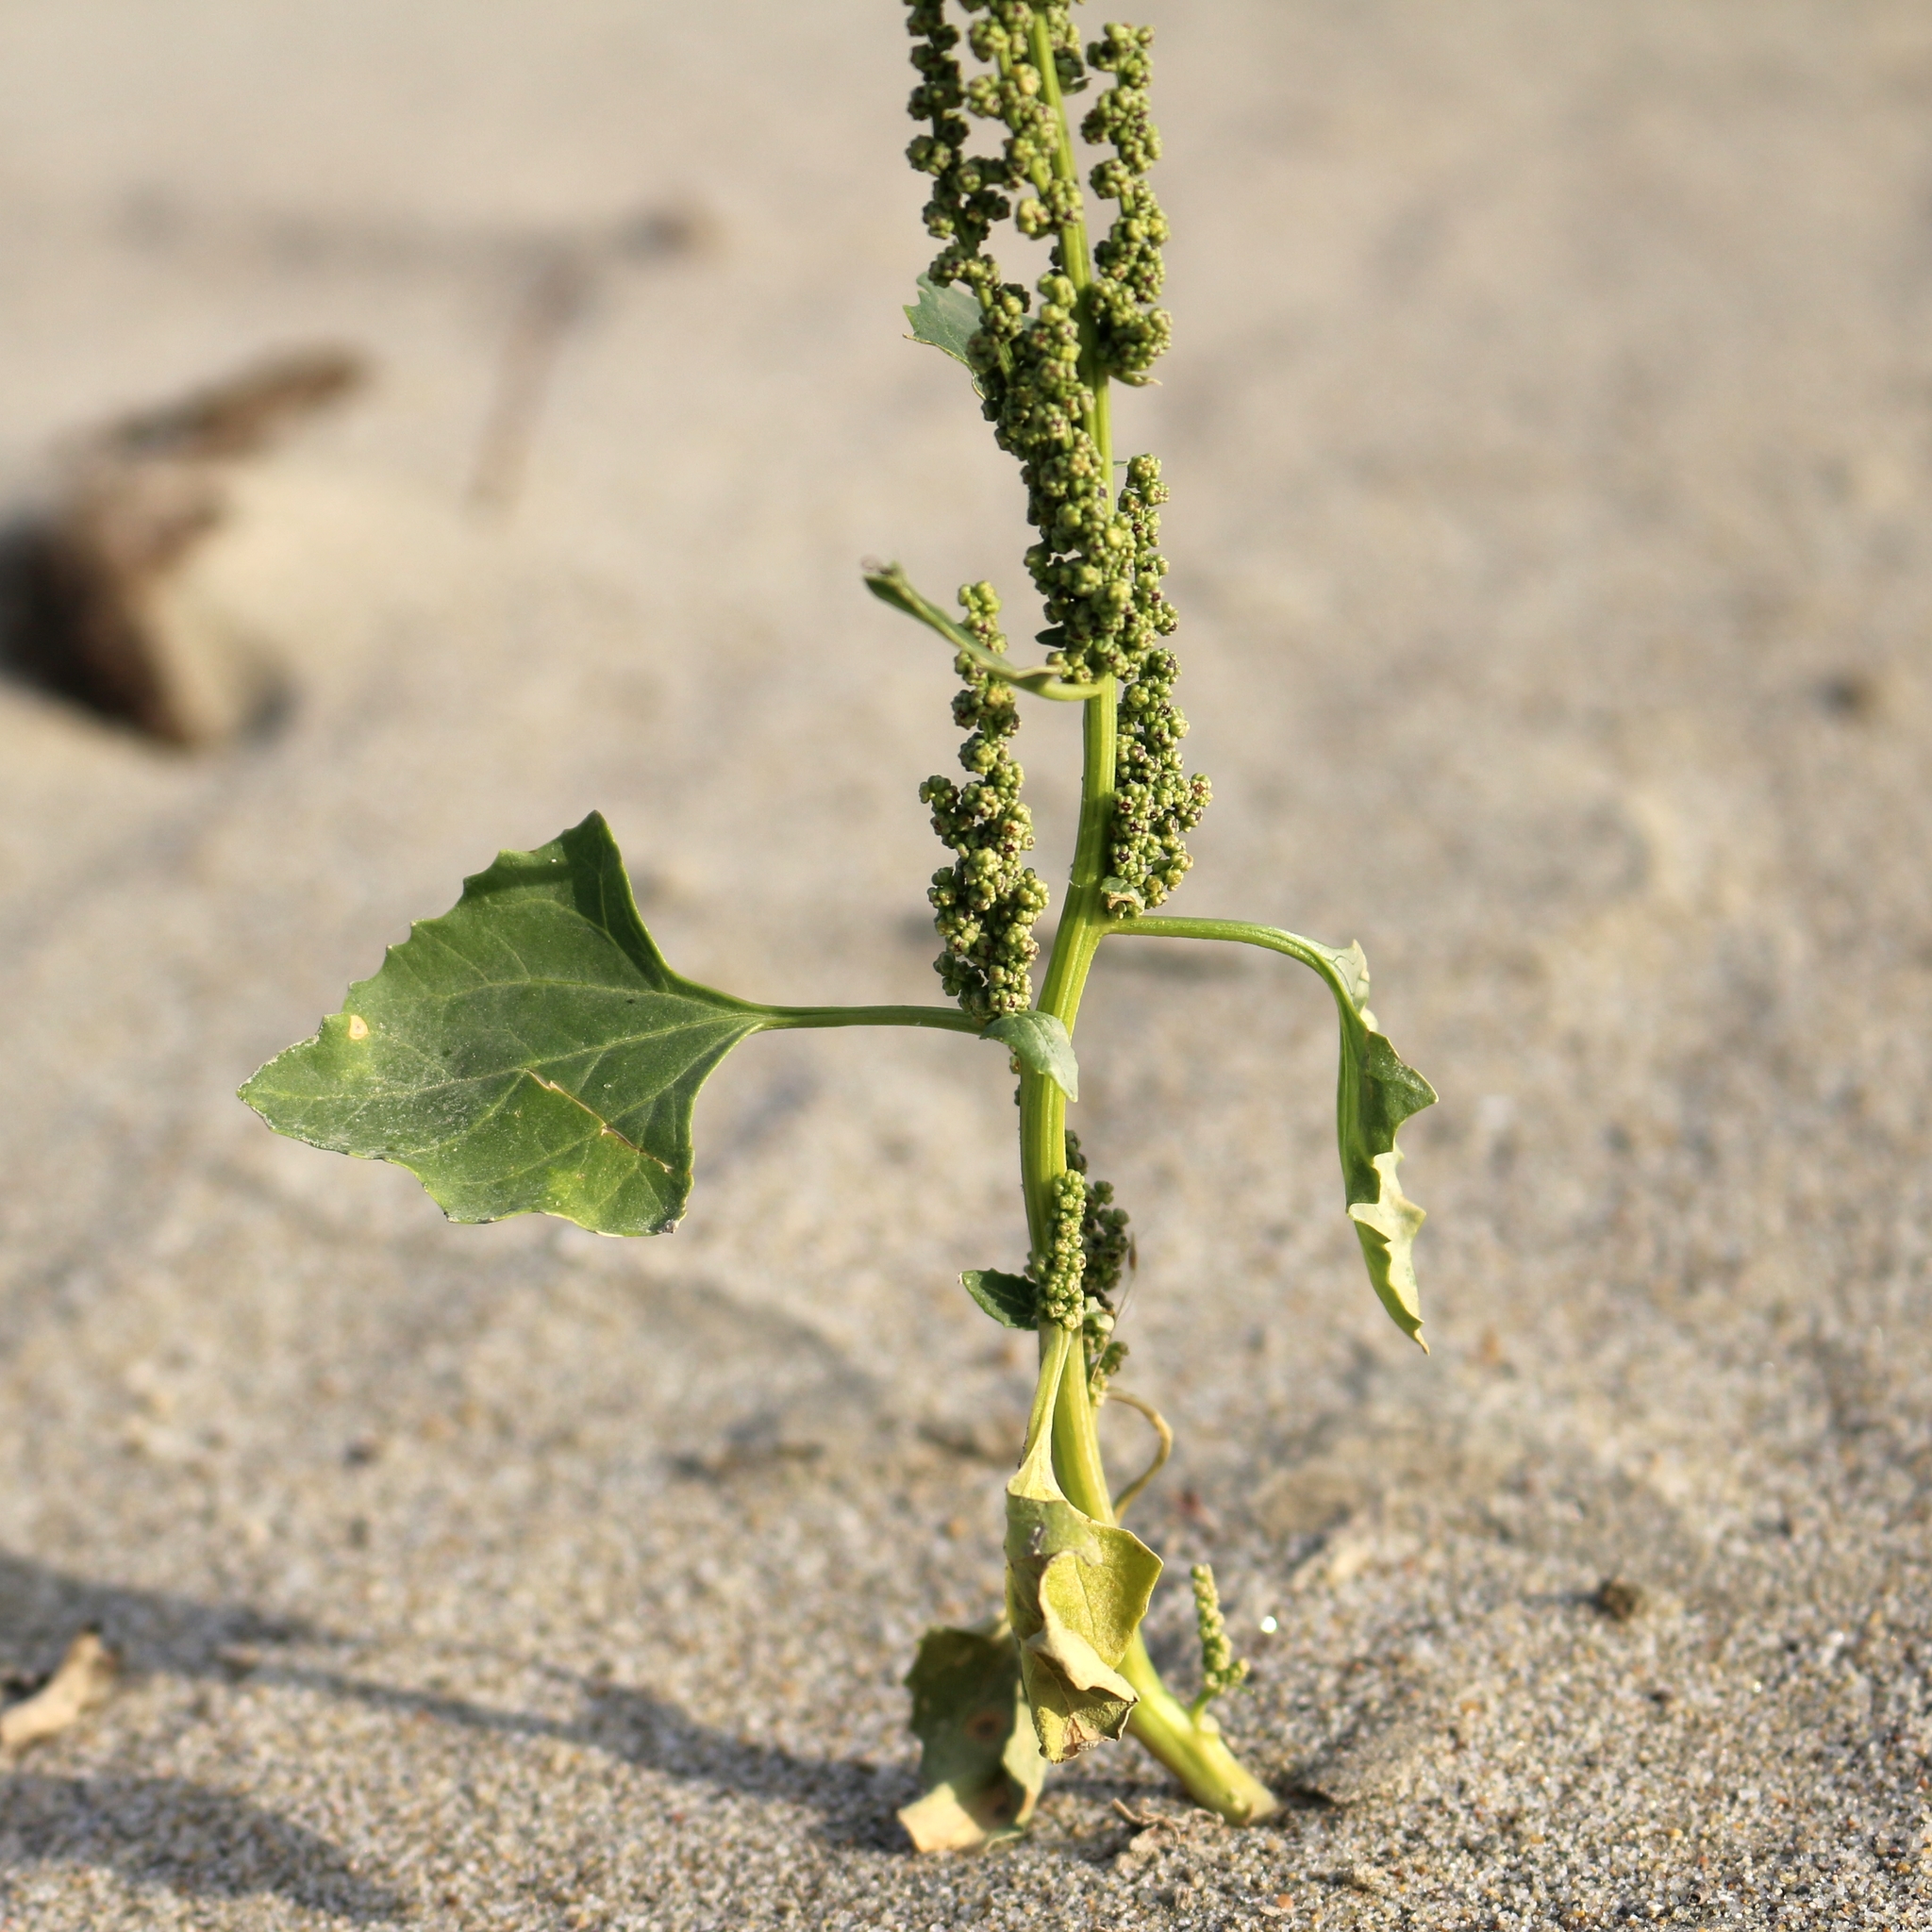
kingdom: Plantae
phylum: Tracheophyta
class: Magnoliopsida
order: Caryophyllales
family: Amaranthaceae
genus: Oxybasis
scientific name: Oxybasis urbica
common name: City goosefoot
